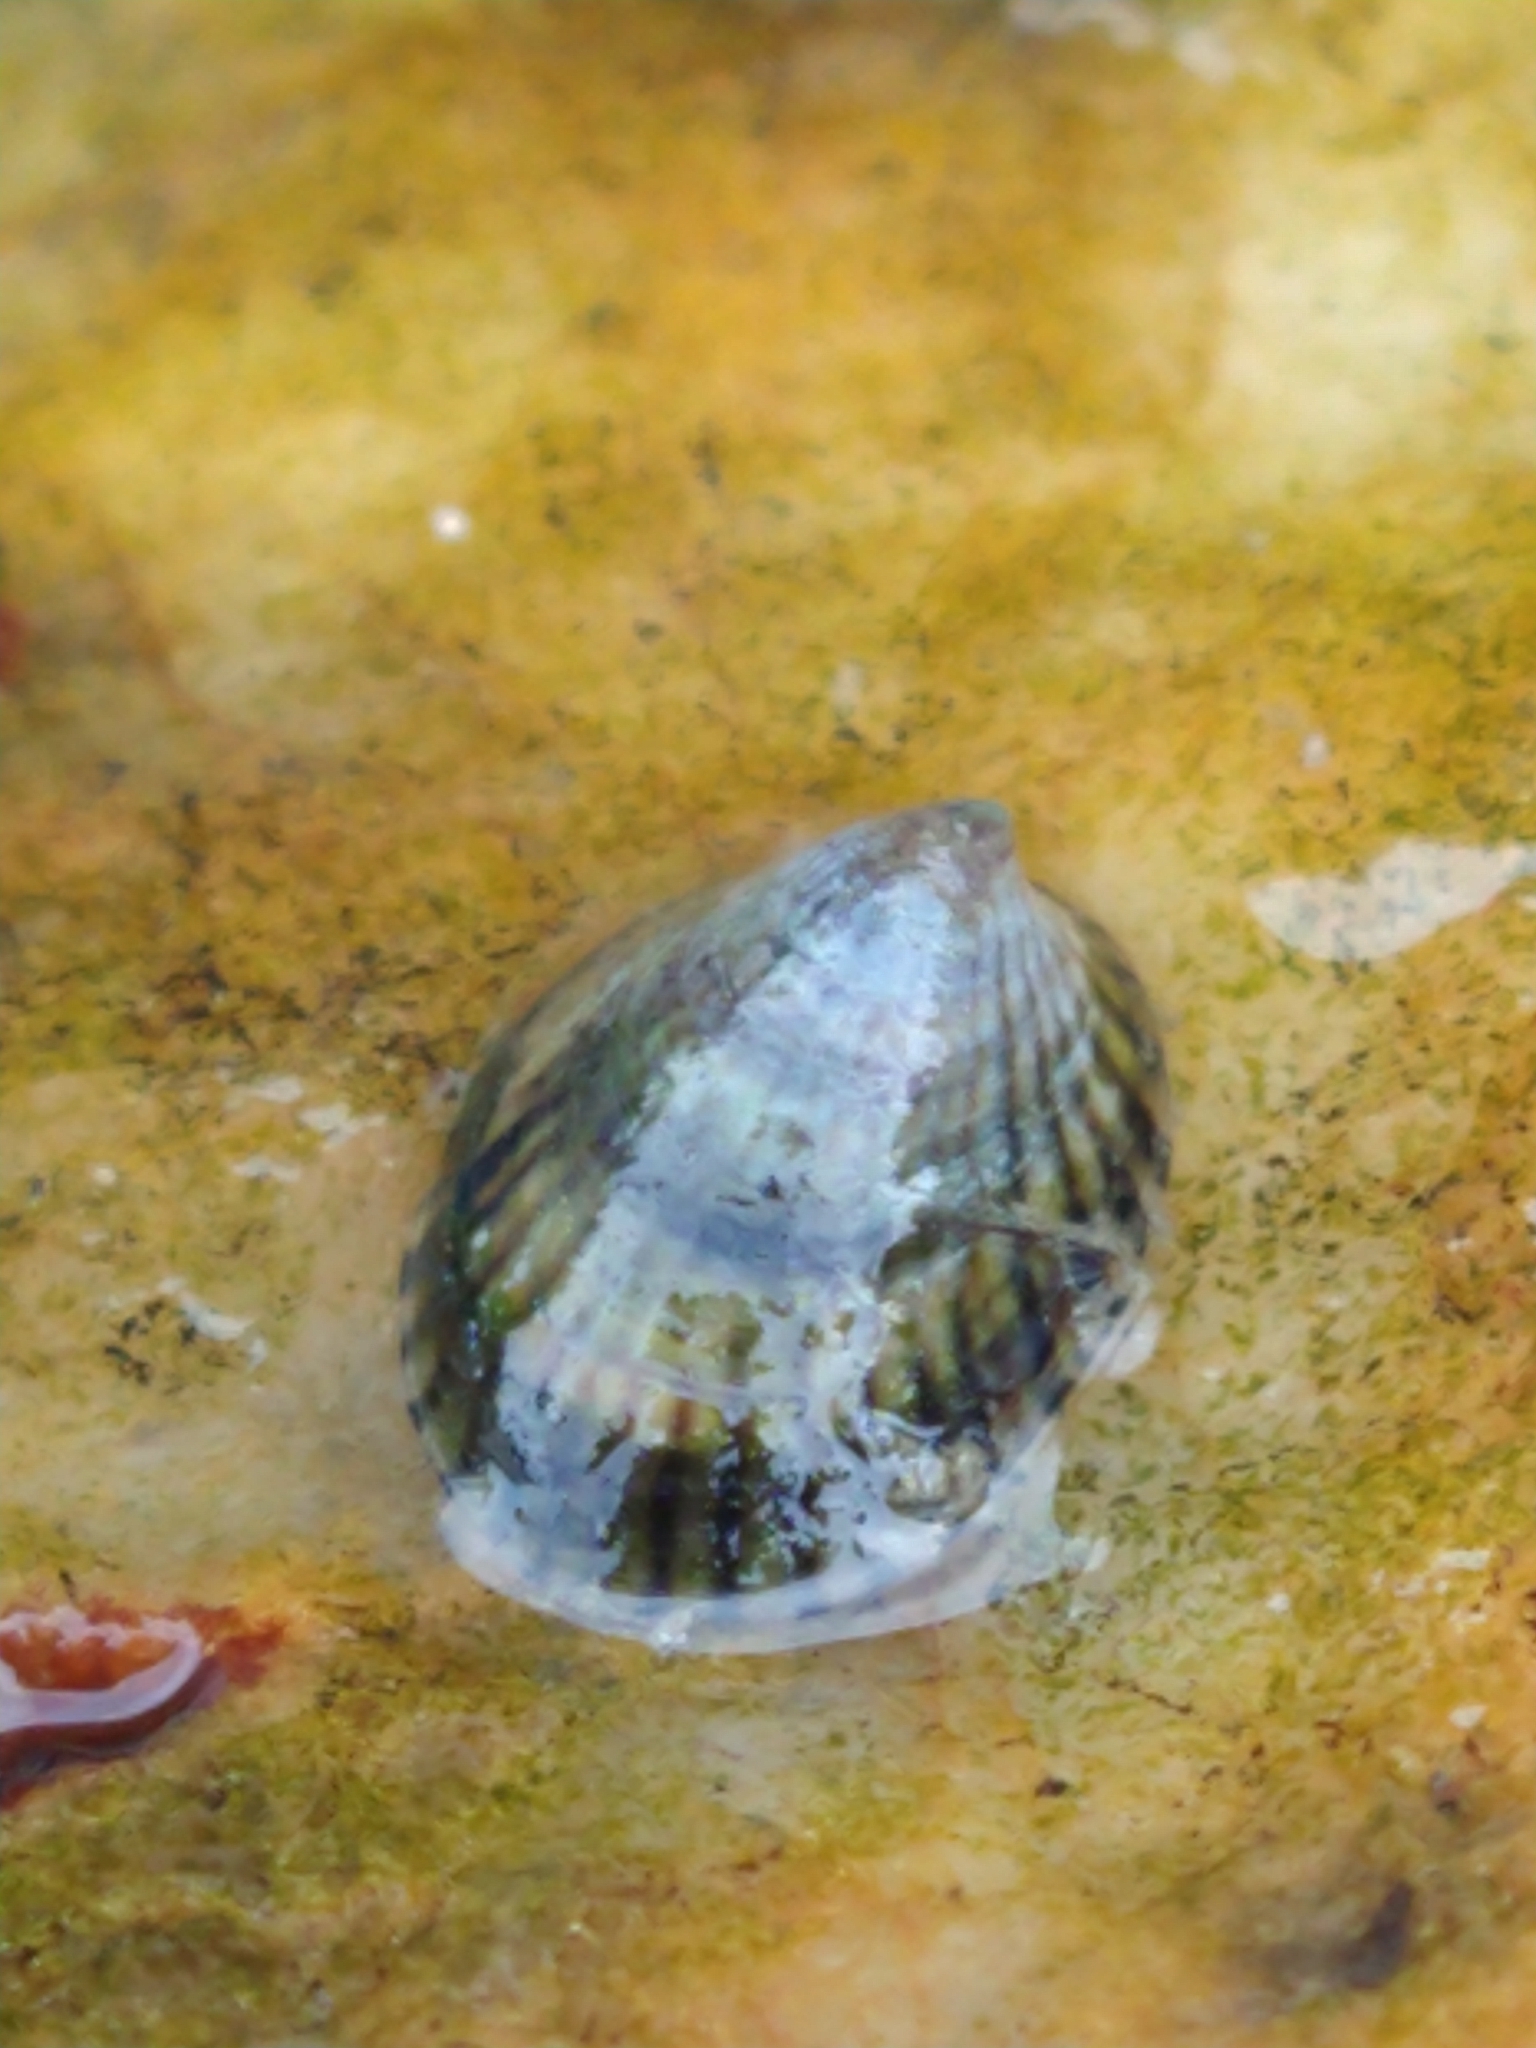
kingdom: Animalia
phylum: Mollusca
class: Gastropoda
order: Siphonariida
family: Siphonariidae
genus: Siphonaria
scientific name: Siphonaria lessonii
